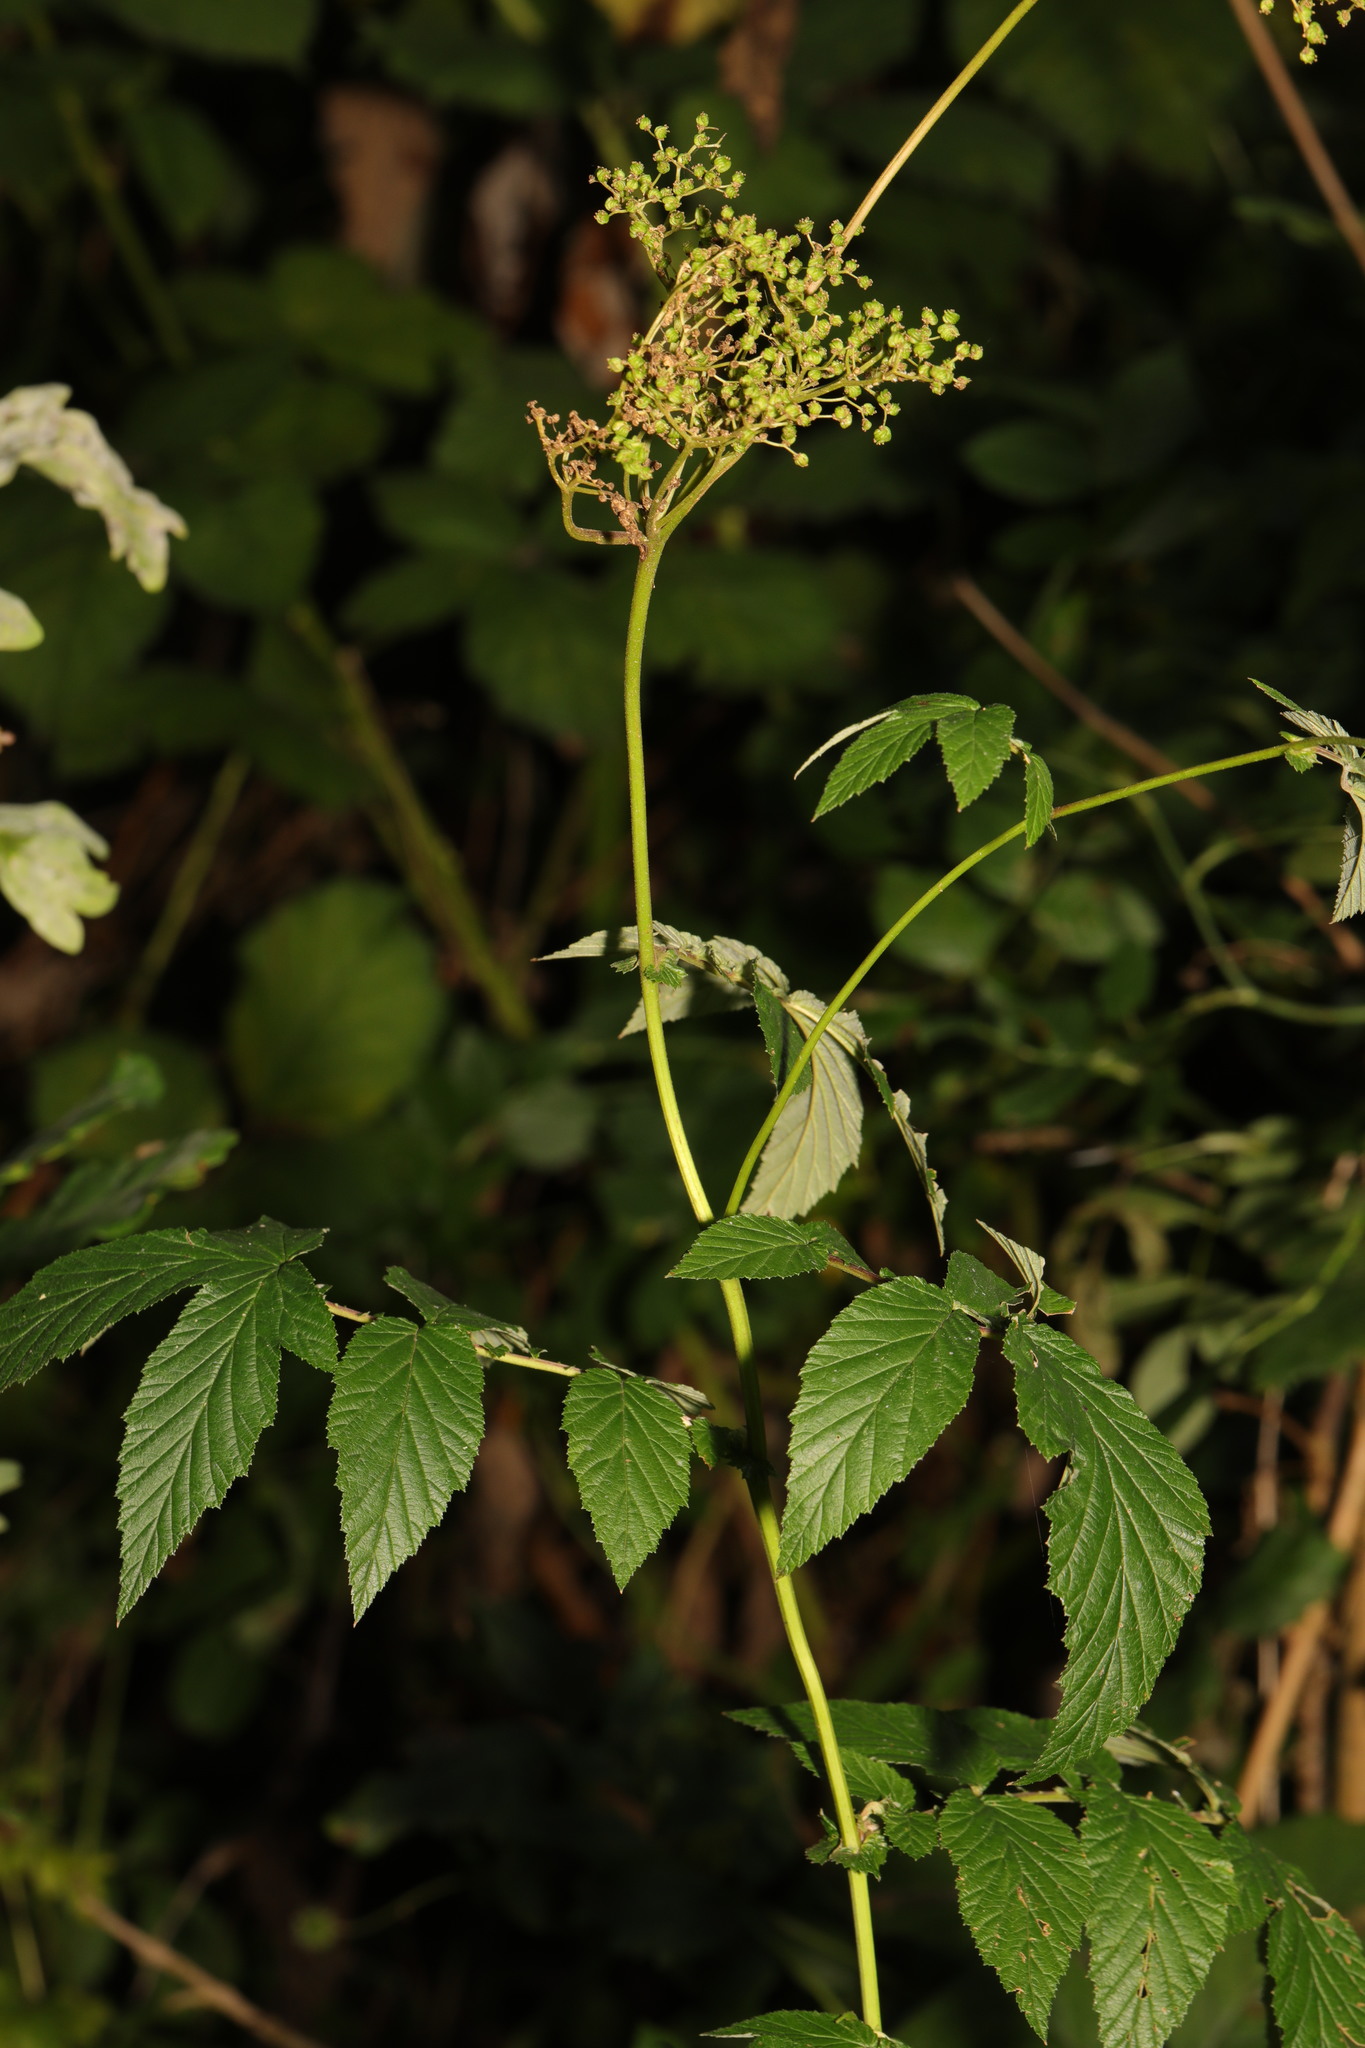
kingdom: Plantae
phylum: Tracheophyta
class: Magnoliopsida
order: Rosales
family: Rosaceae
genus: Filipendula
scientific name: Filipendula ulmaria
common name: Meadowsweet
